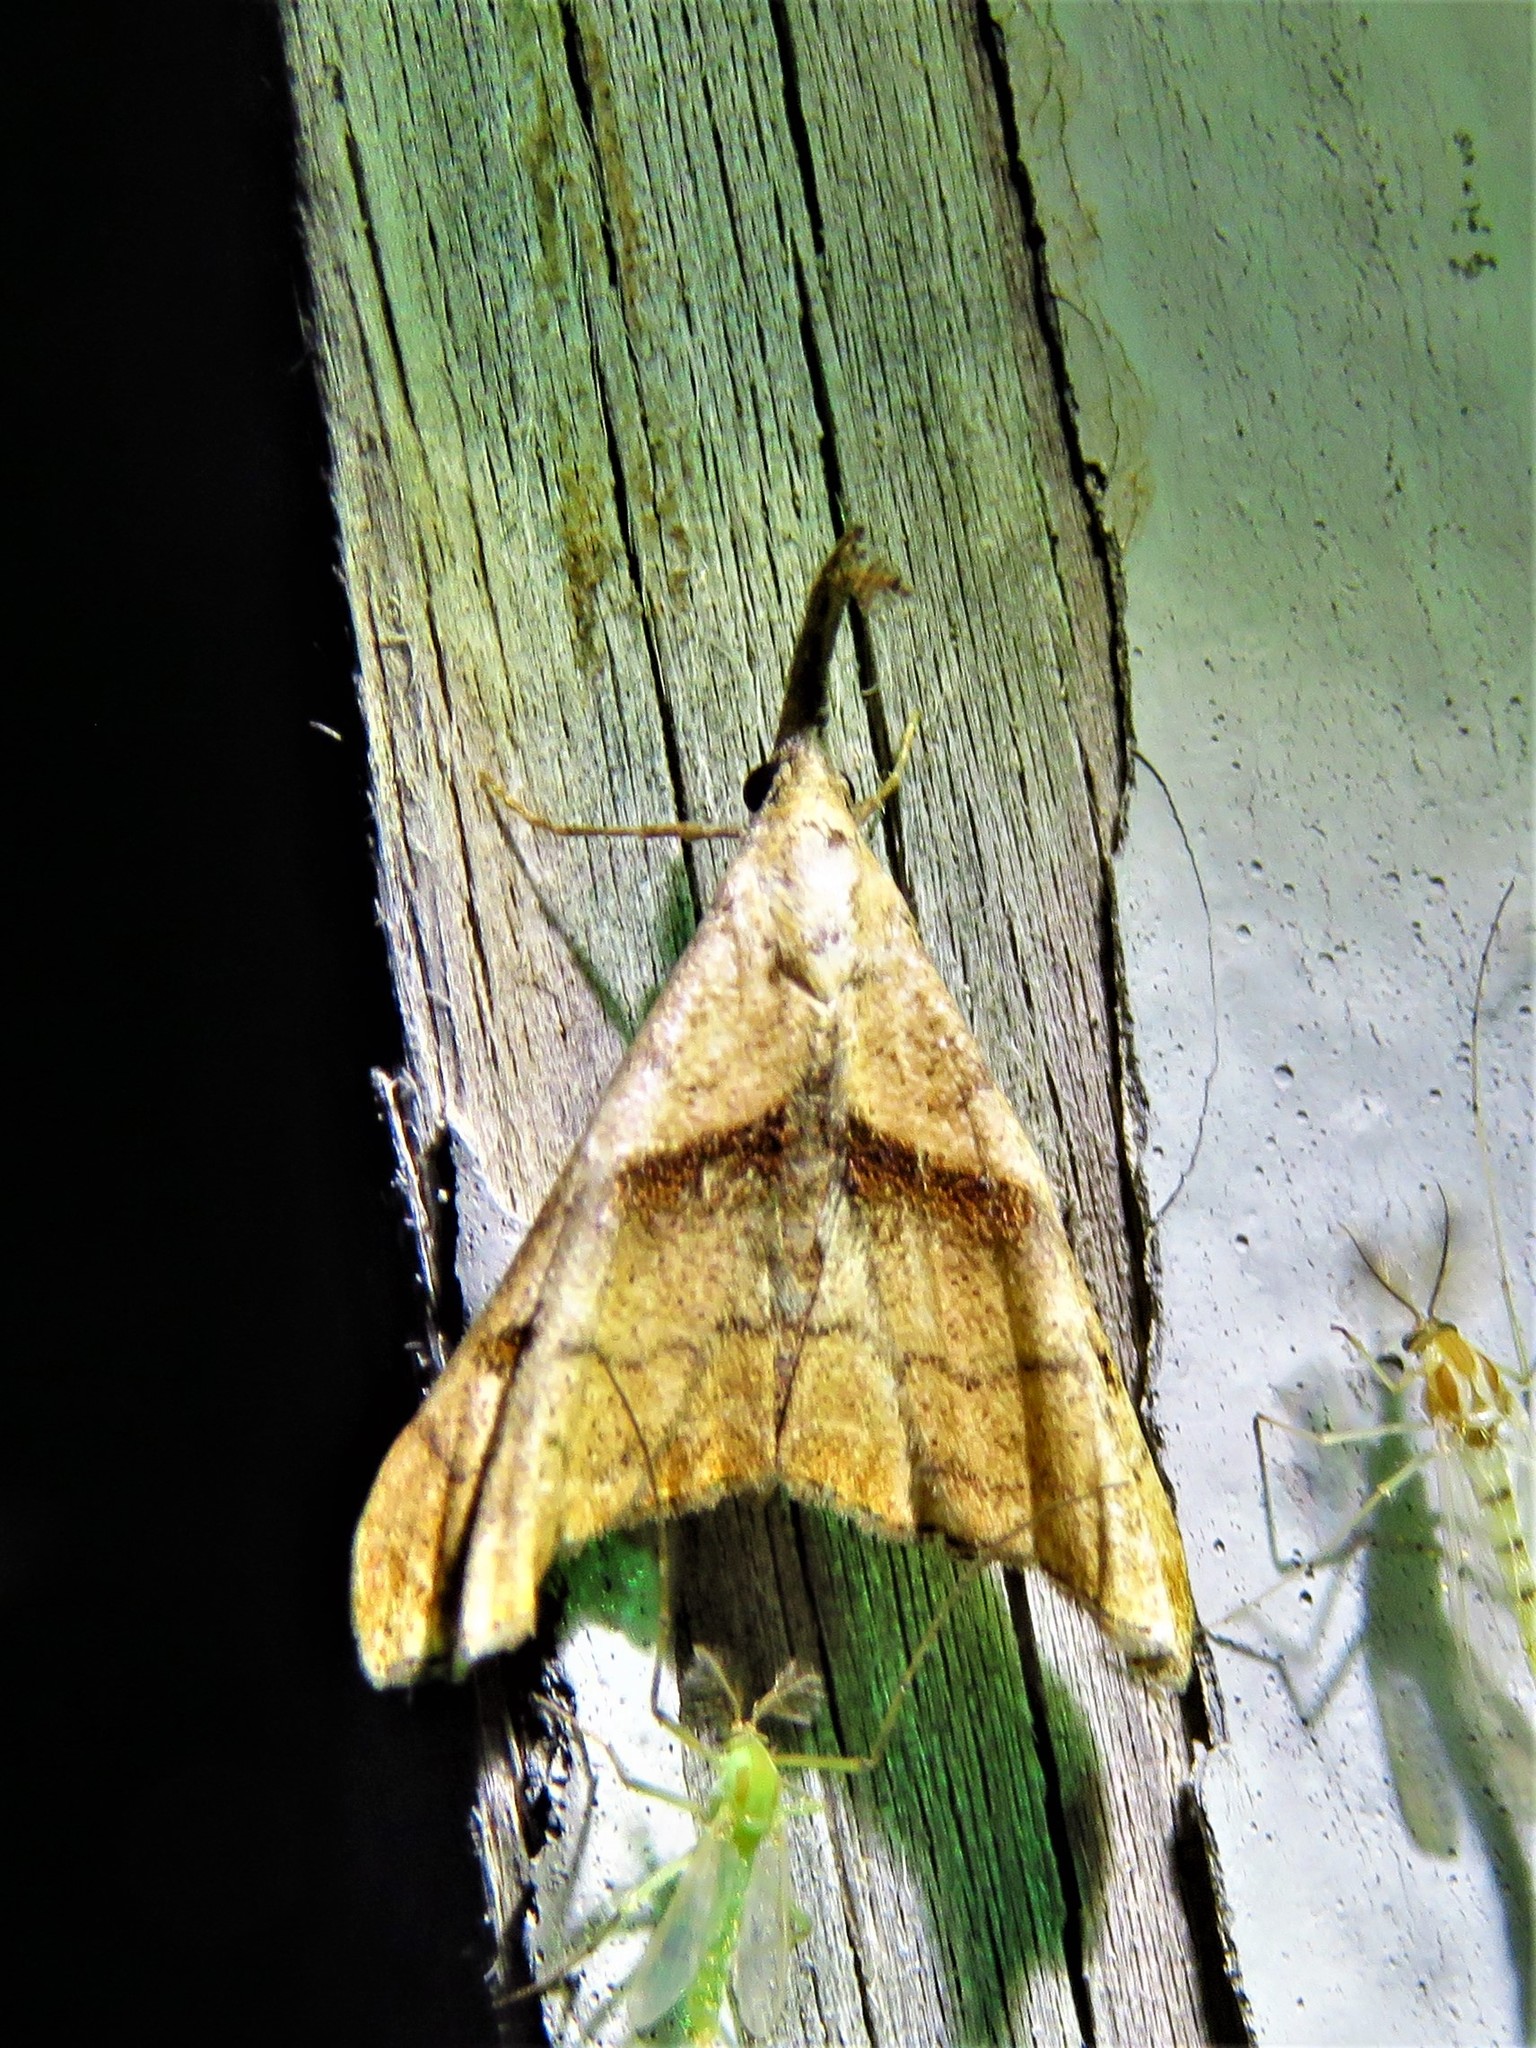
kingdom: Animalia
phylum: Arthropoda
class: Insecta
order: Lepidoptera
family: Erebidae
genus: Palthis
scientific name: Palthis angulalis
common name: Dark-spotted palthis moth
